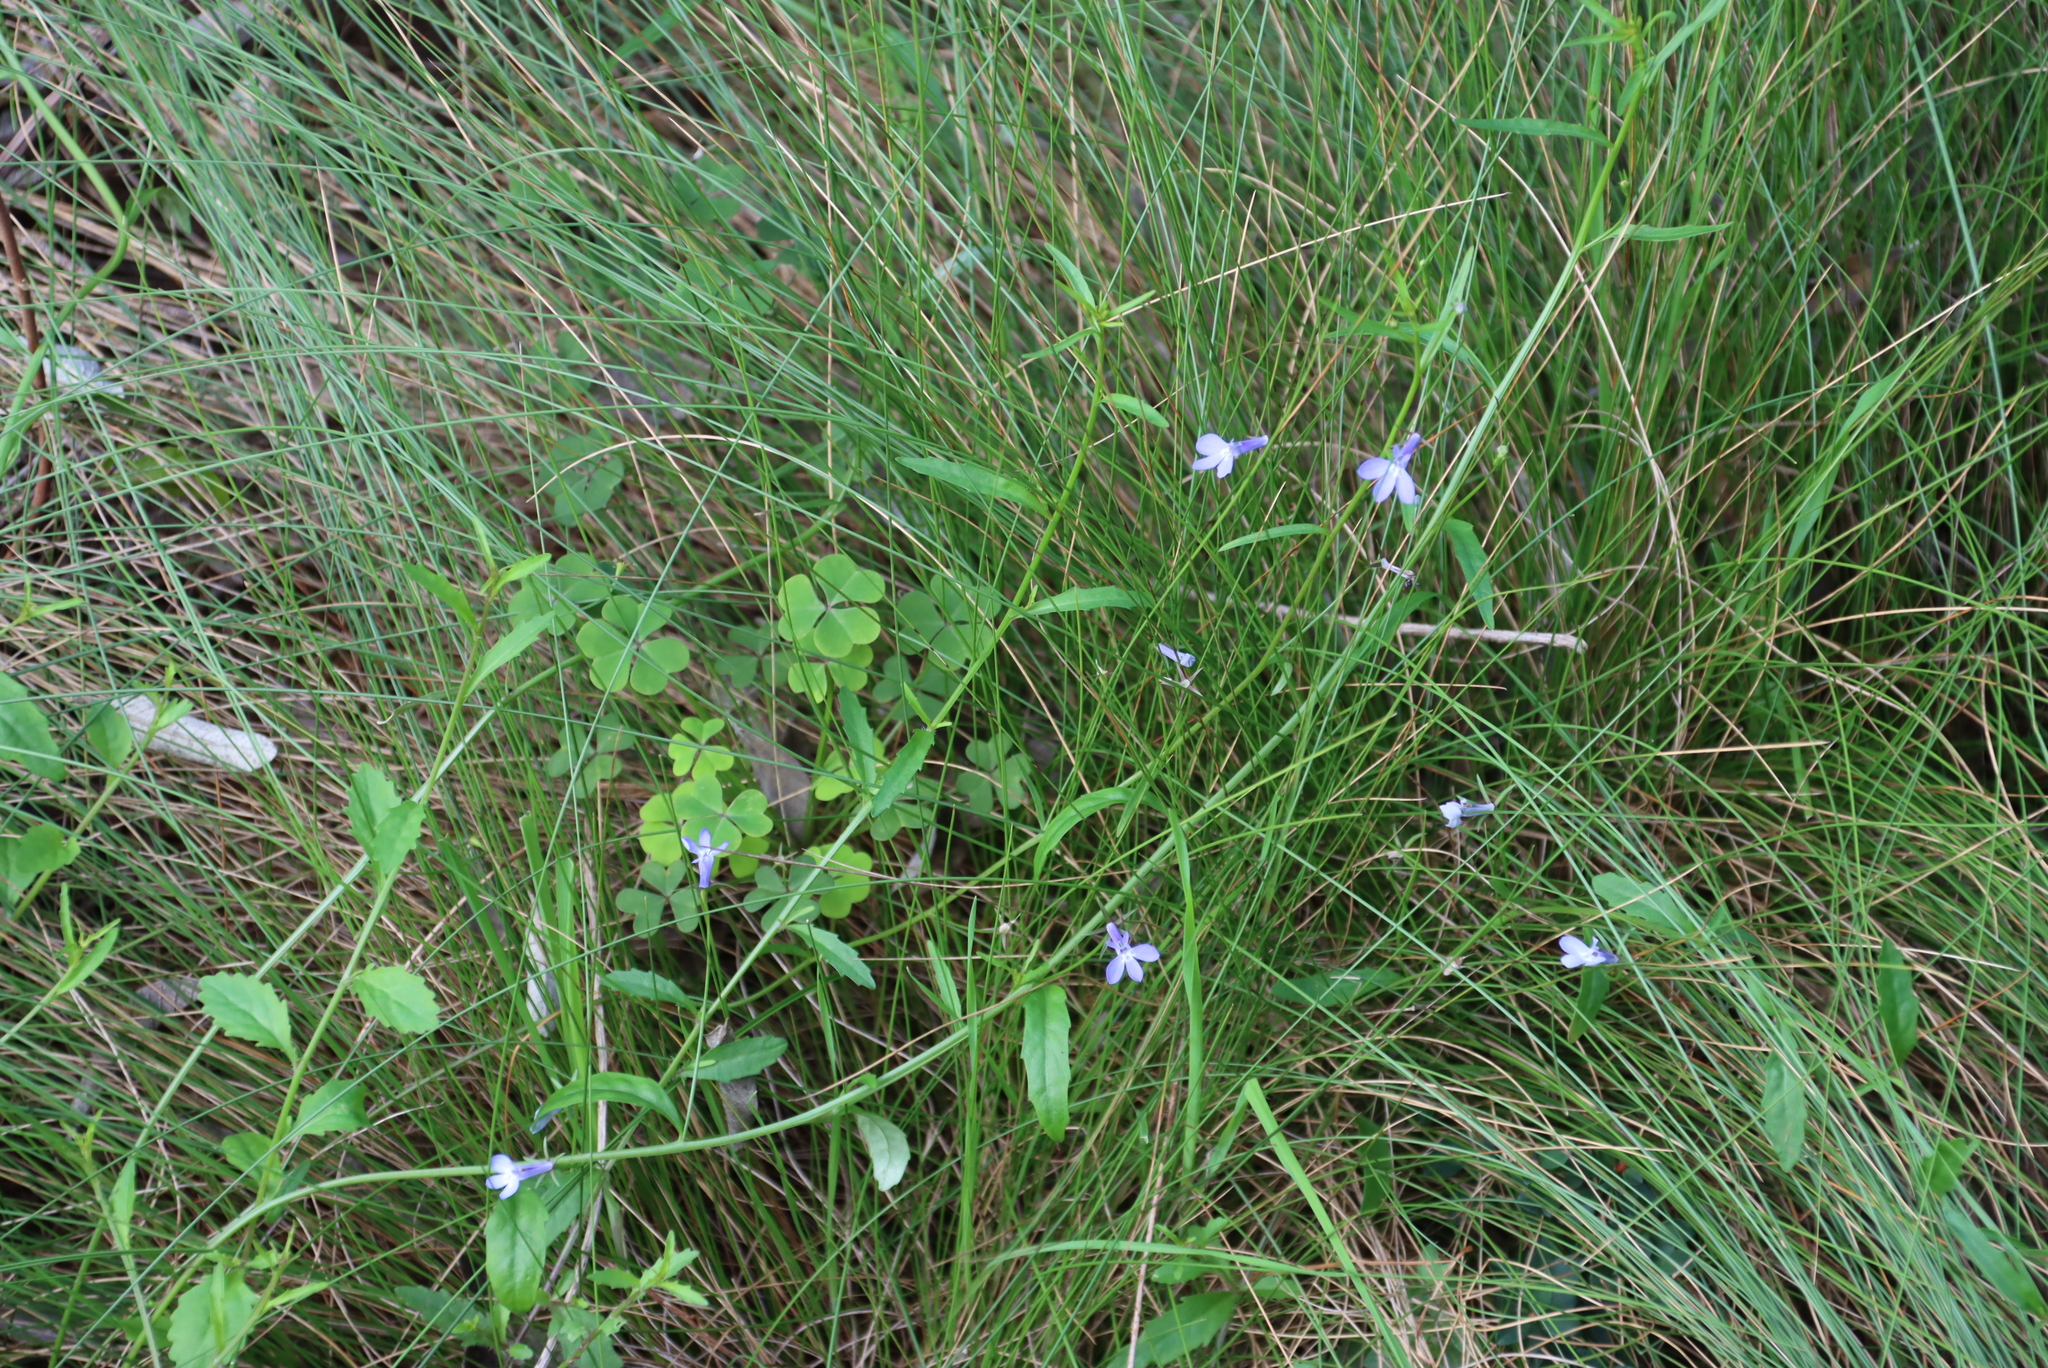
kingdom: Plantae
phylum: Tracheophyta
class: Magnoliopsida
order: Asterales
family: Campanulaceae
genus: Lobelia
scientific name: Lobelia erinus
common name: Edging lobelia
